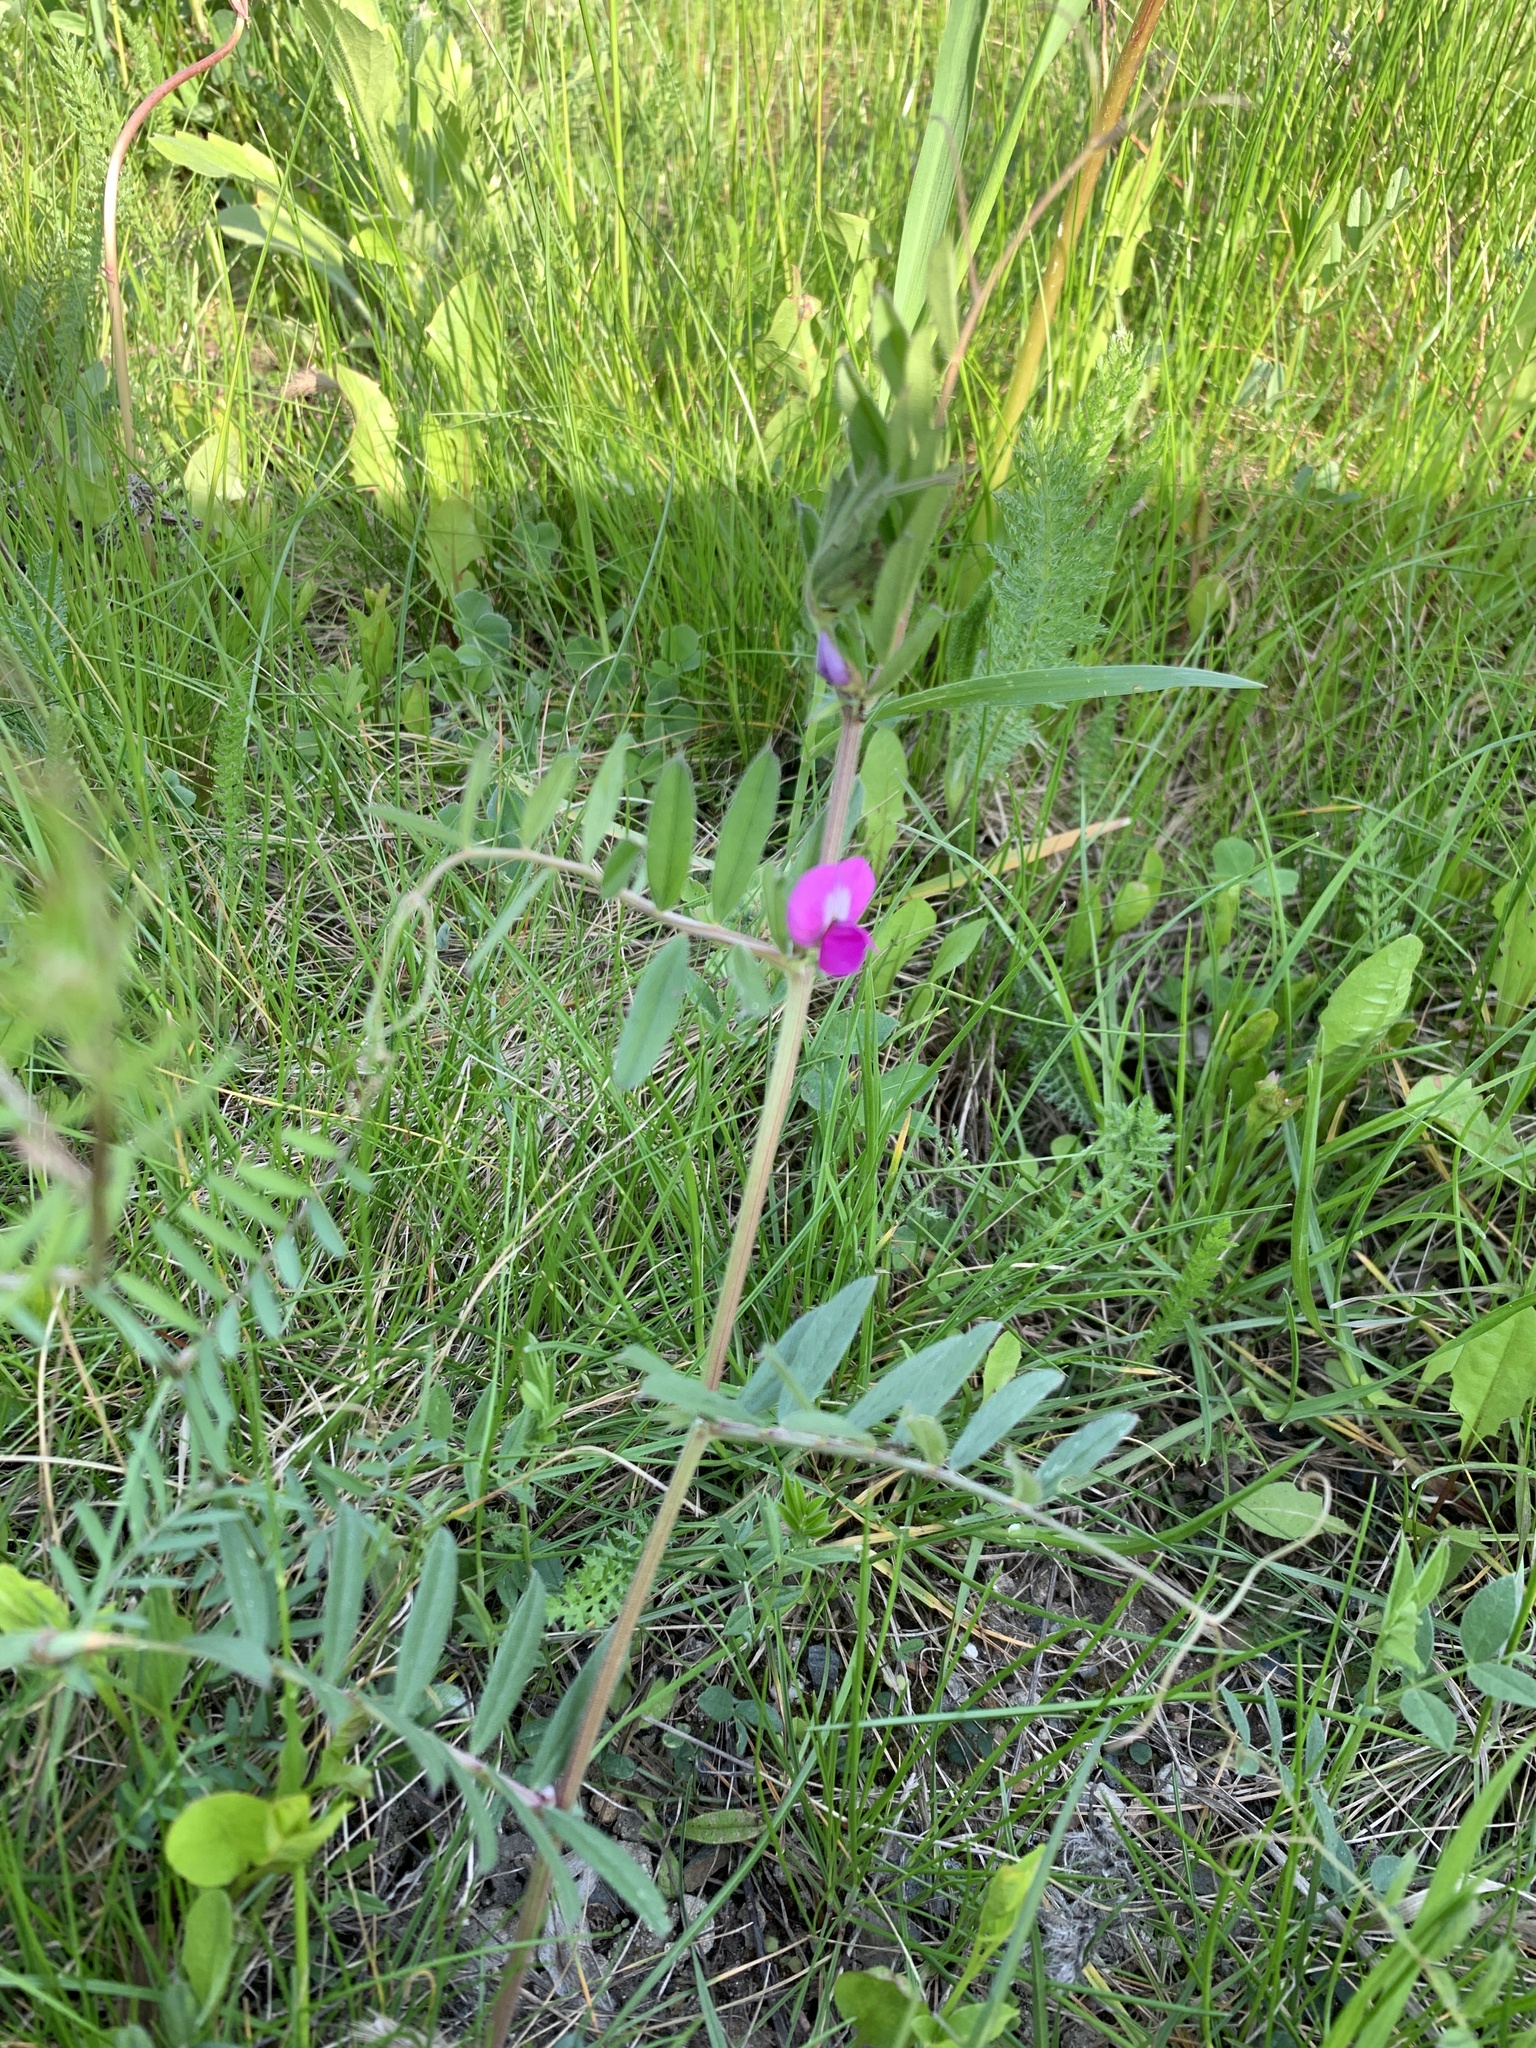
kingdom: Plantae
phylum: Tracheophyta
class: Magnoliopsida
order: Fabales
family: Fabaceae
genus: Vicia
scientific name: Vicia sativa
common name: Garden vetch
